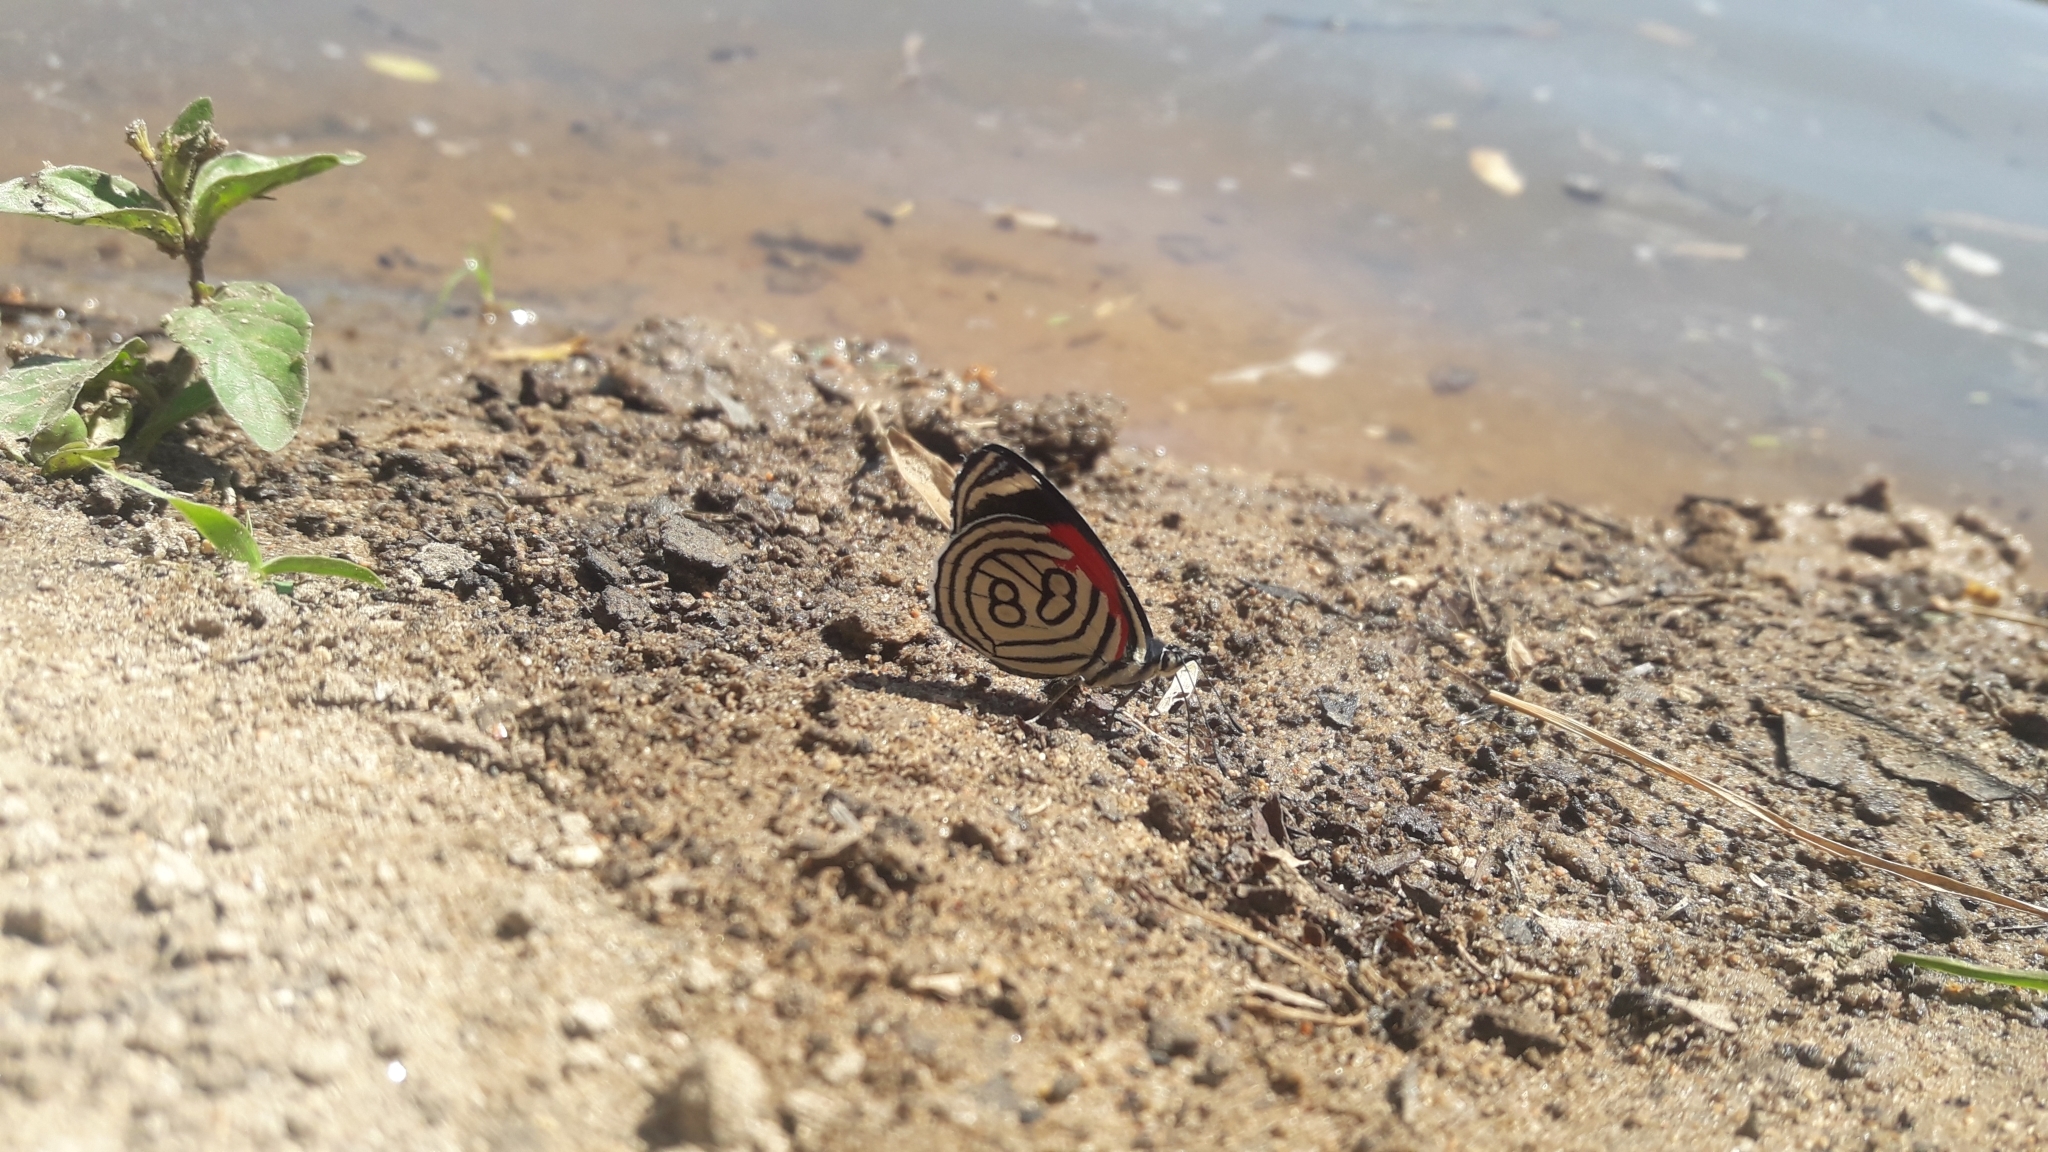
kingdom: Animalia
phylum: Arthropoda
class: Insecta
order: Lepidoptera
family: Nymphalidae
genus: Diaethria
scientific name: Diaethria candrena
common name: Number eighty
